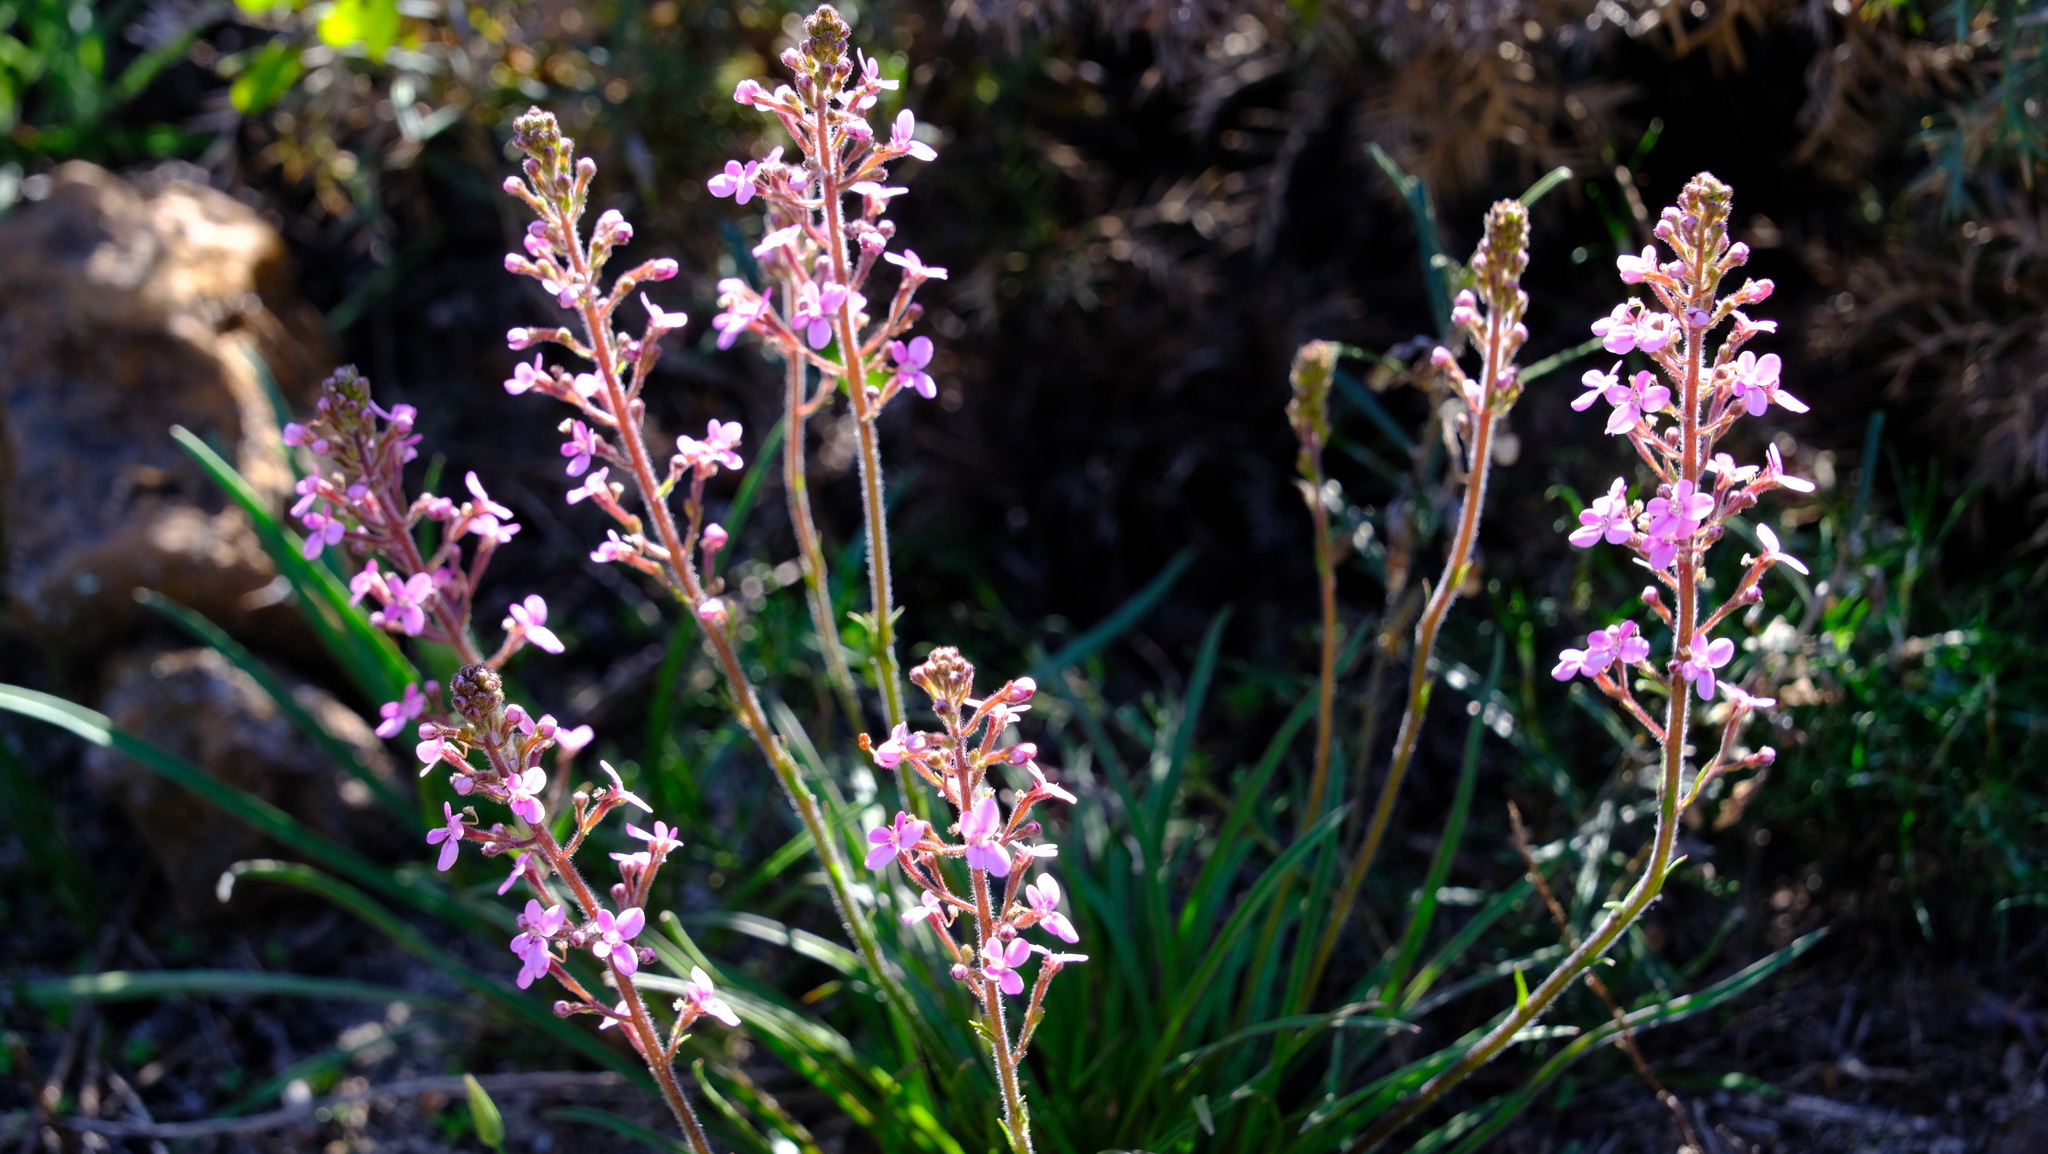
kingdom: Plantae
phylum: Tracheophyta
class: Magnoliopsida
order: Asterales
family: Stylidiaceae
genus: Stylidium
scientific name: Stylidium elongatum
